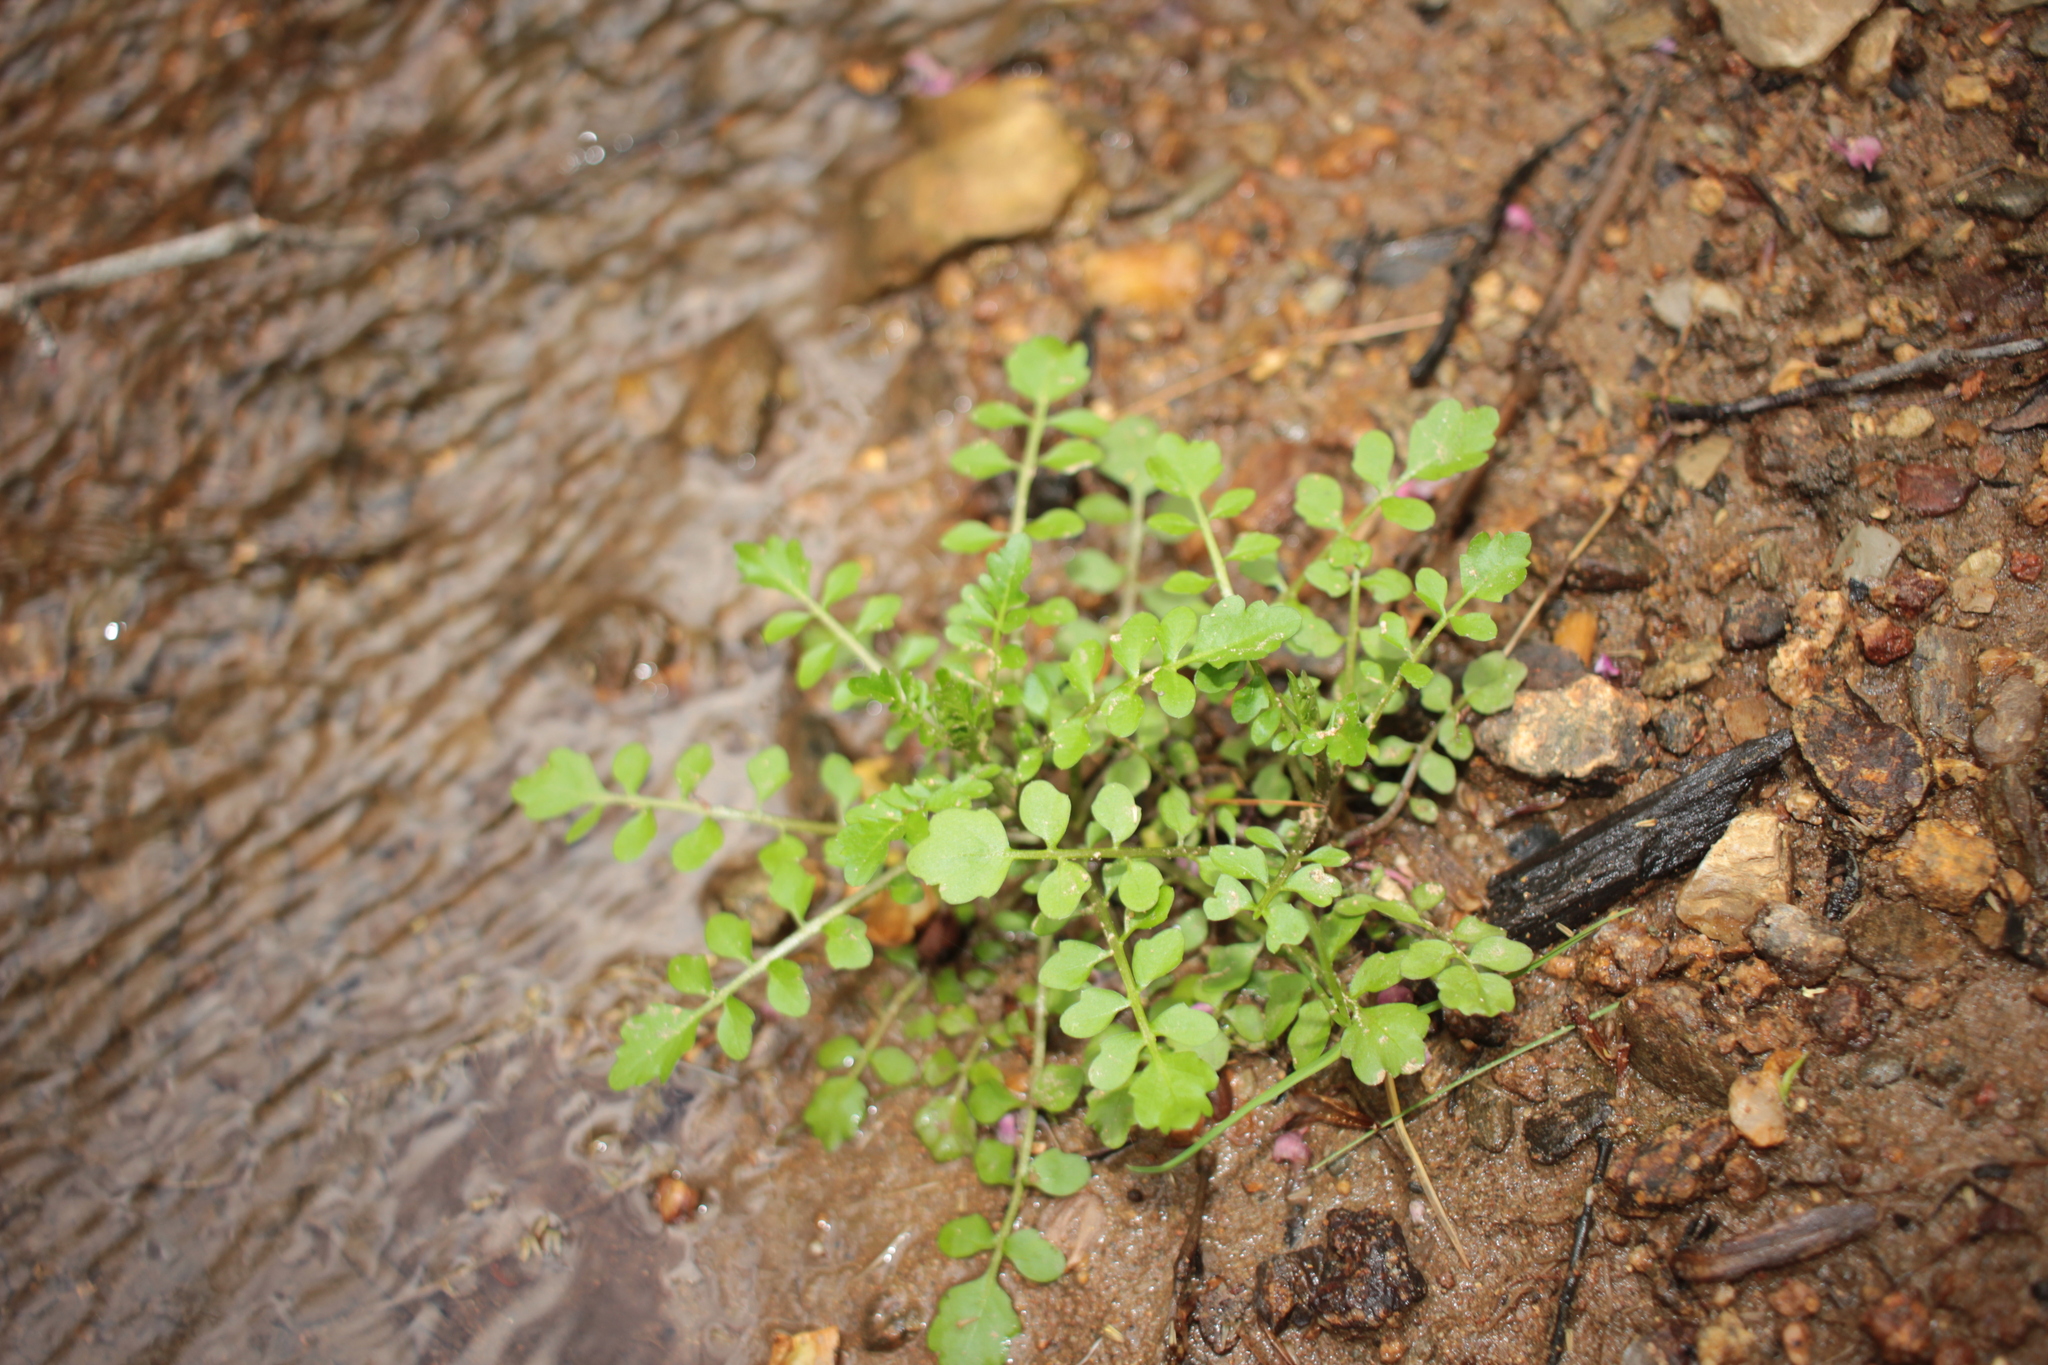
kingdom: Plantae
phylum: Tracheophyta
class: Magnoliopsida
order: Brassicales
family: Brassicaceae
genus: Cardamine
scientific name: Cardamine pensylvanica
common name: Pennsylvania bittercress
